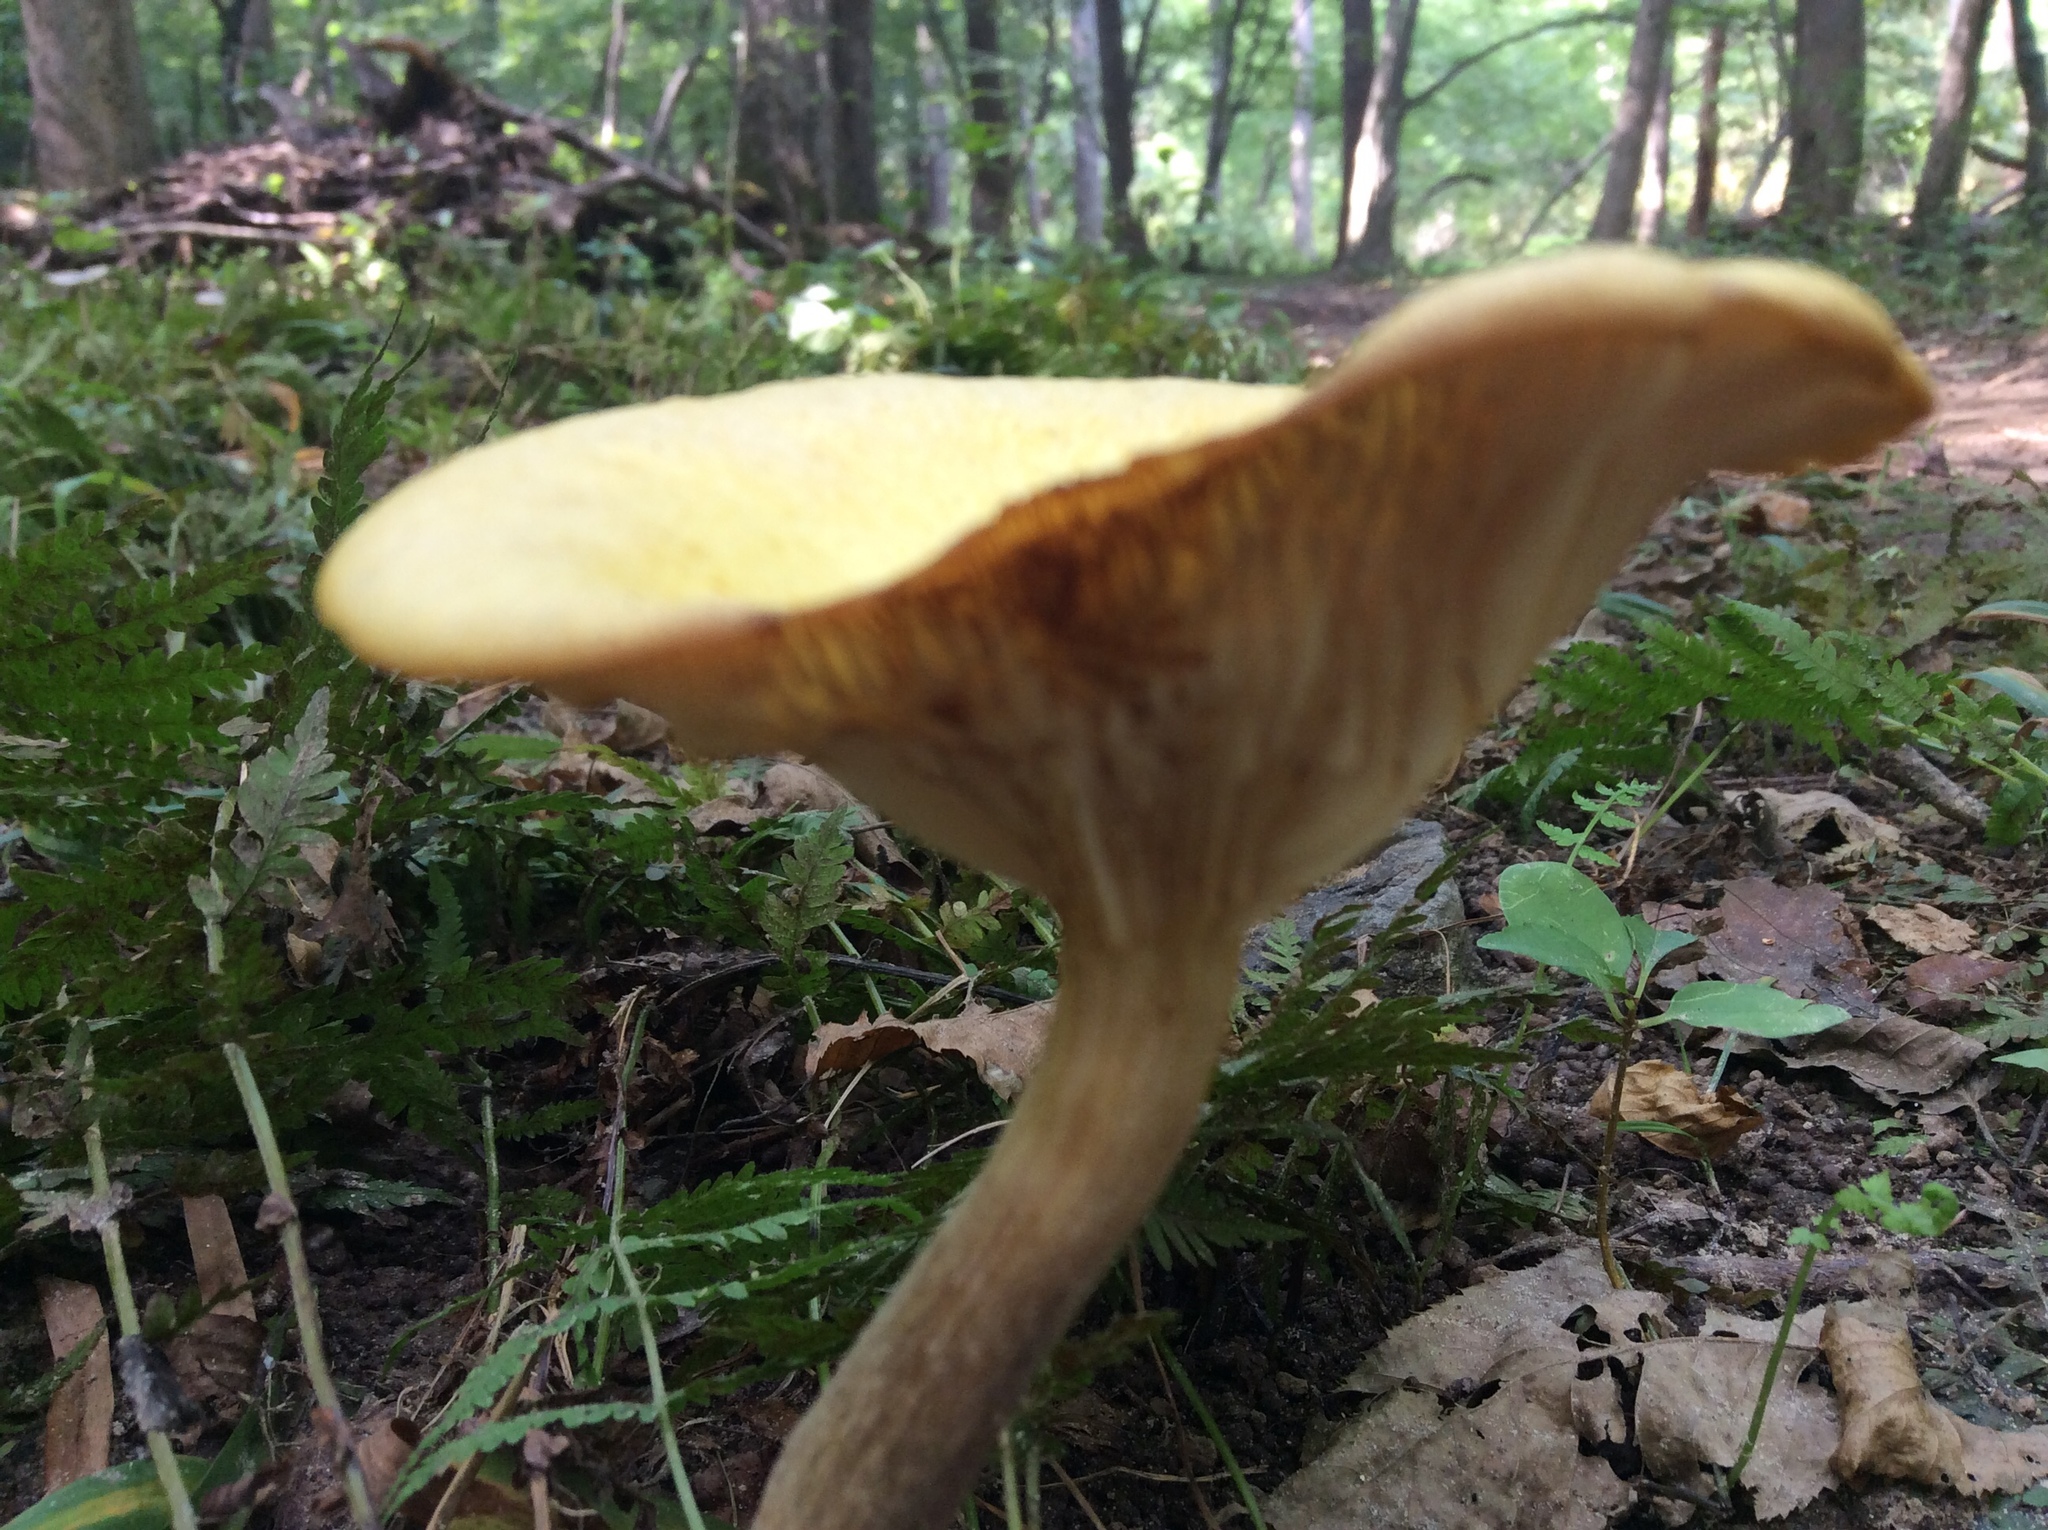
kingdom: Fungi
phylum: Basidiomycota
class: Agaricomycetes
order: Agaricales
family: Physalacriaceae
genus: Desarmillaria
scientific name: Desarmillaria caespitosa
